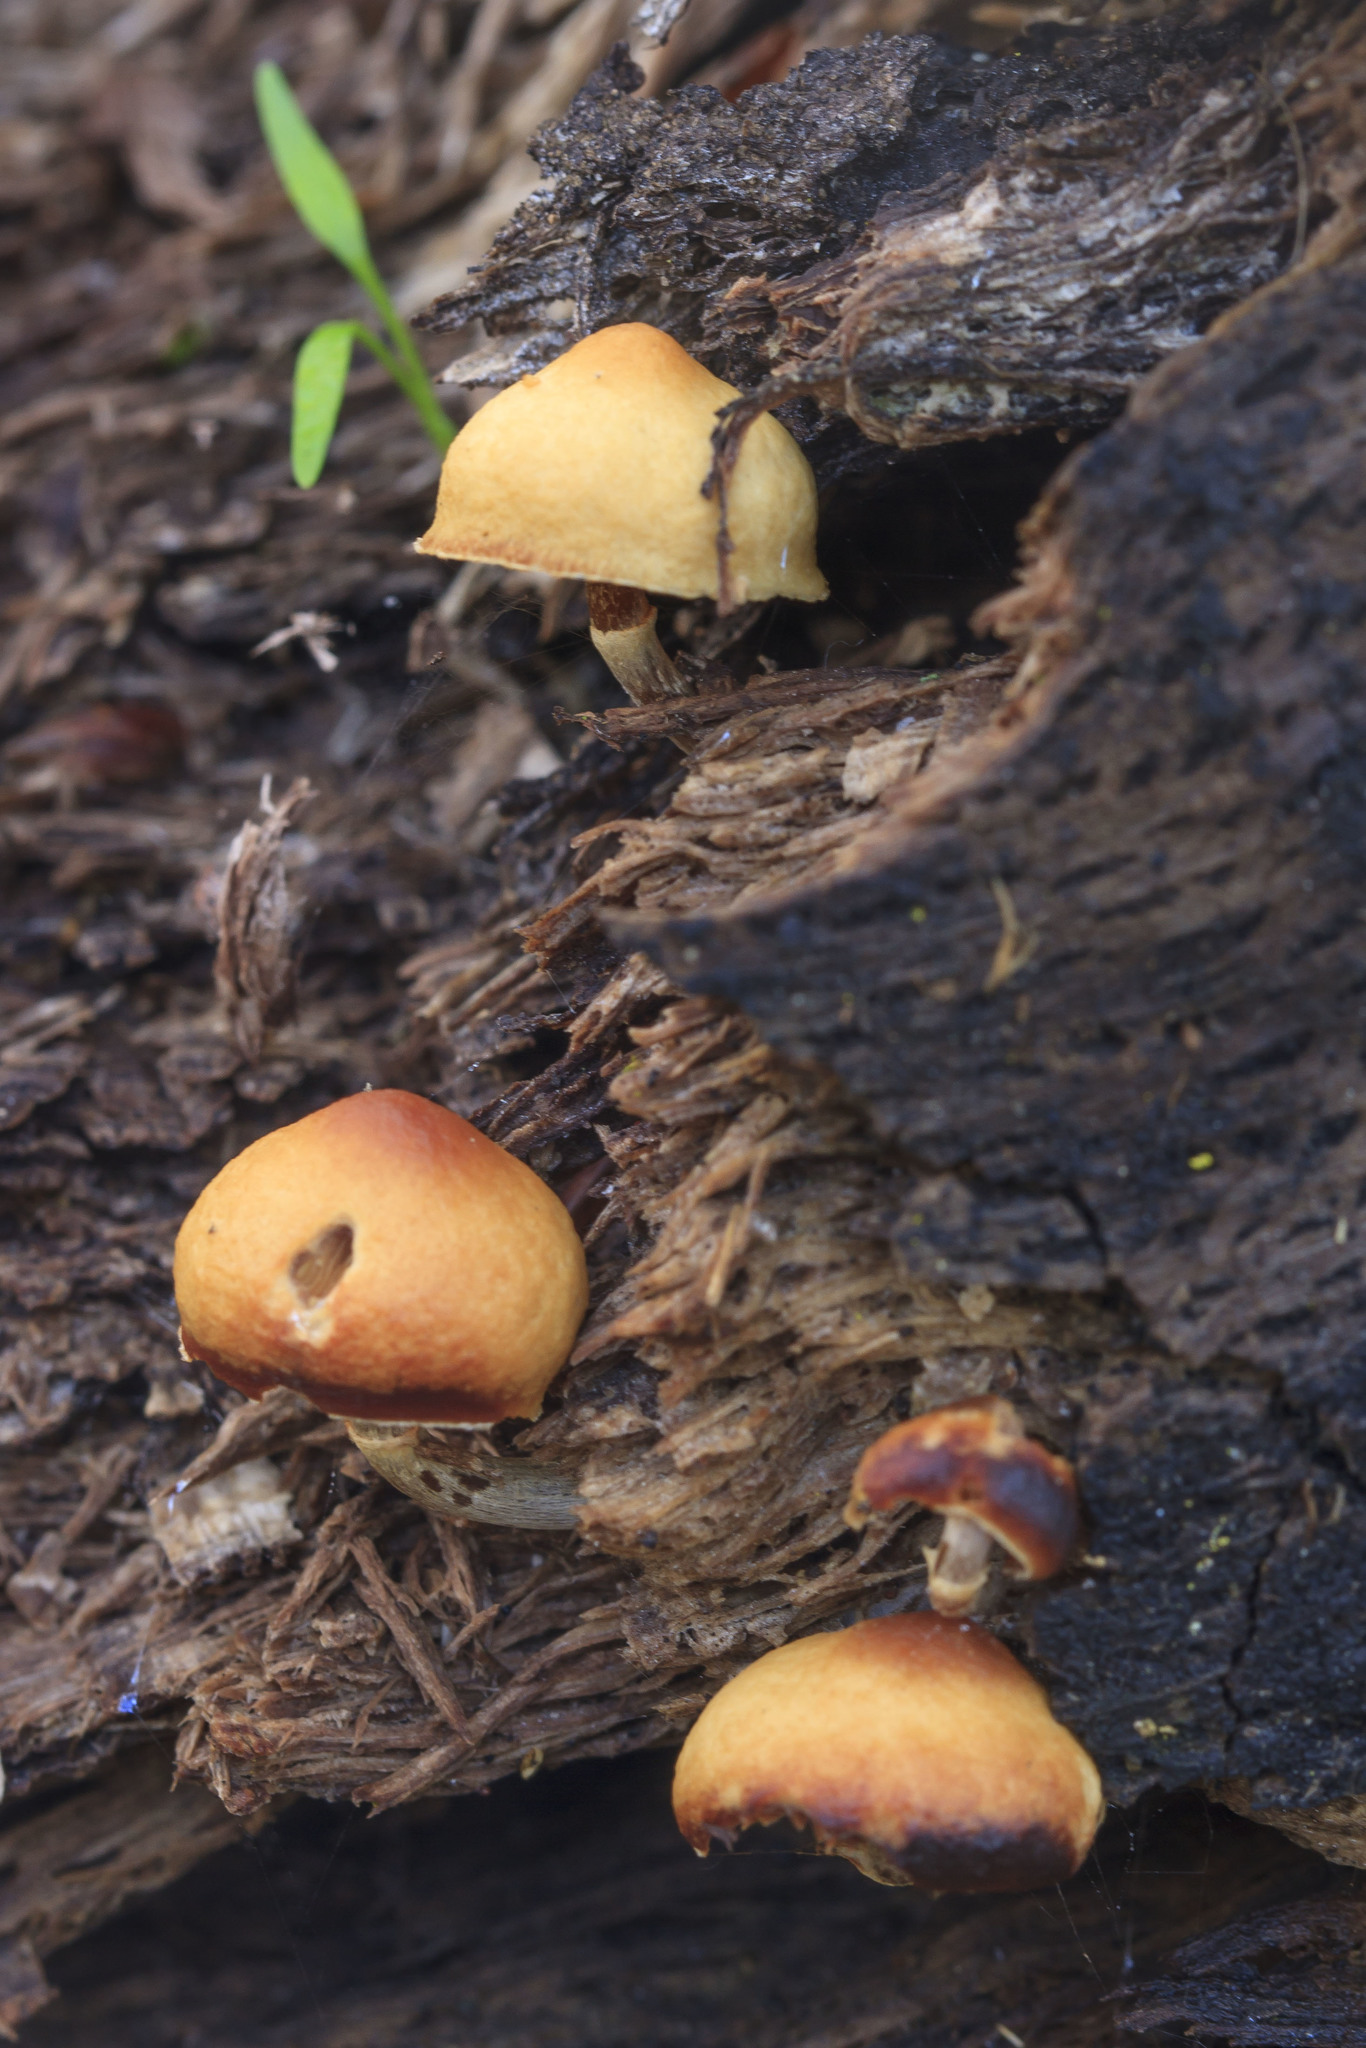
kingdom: Fungi
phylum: Basidiomycota
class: Agaricomycetes
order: Agaricales
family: Hymenogastraceae
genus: Galerina
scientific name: Galerina marginata
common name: Funeral bell
